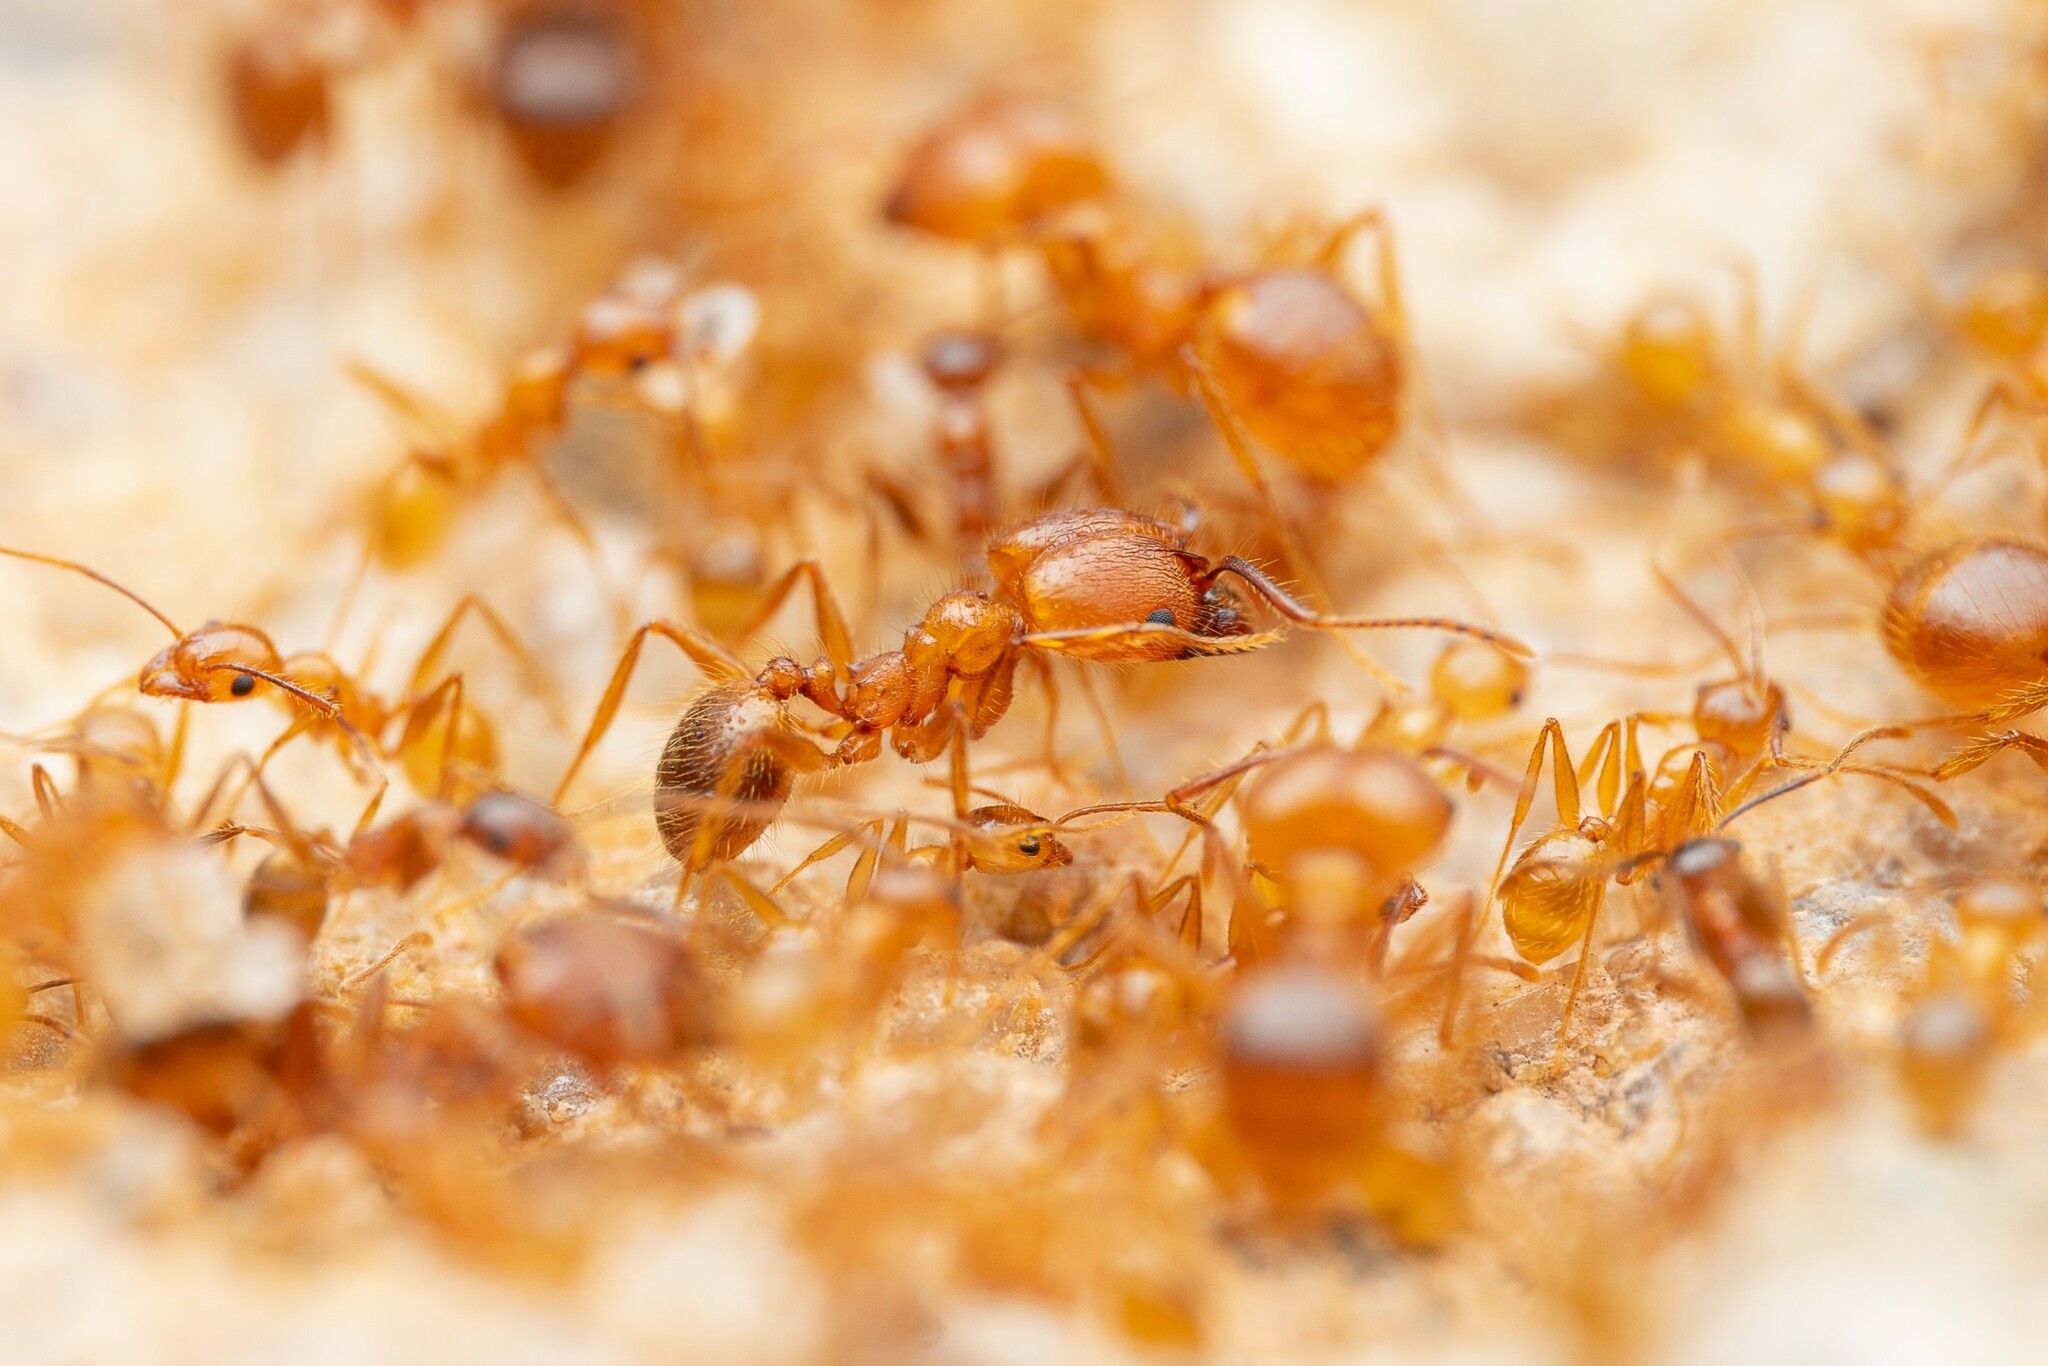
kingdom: Animalia
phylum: Arthropoda
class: Insecta
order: Hymenoptera
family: Formicidae
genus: Pheidole
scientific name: Pheidole hyatti
